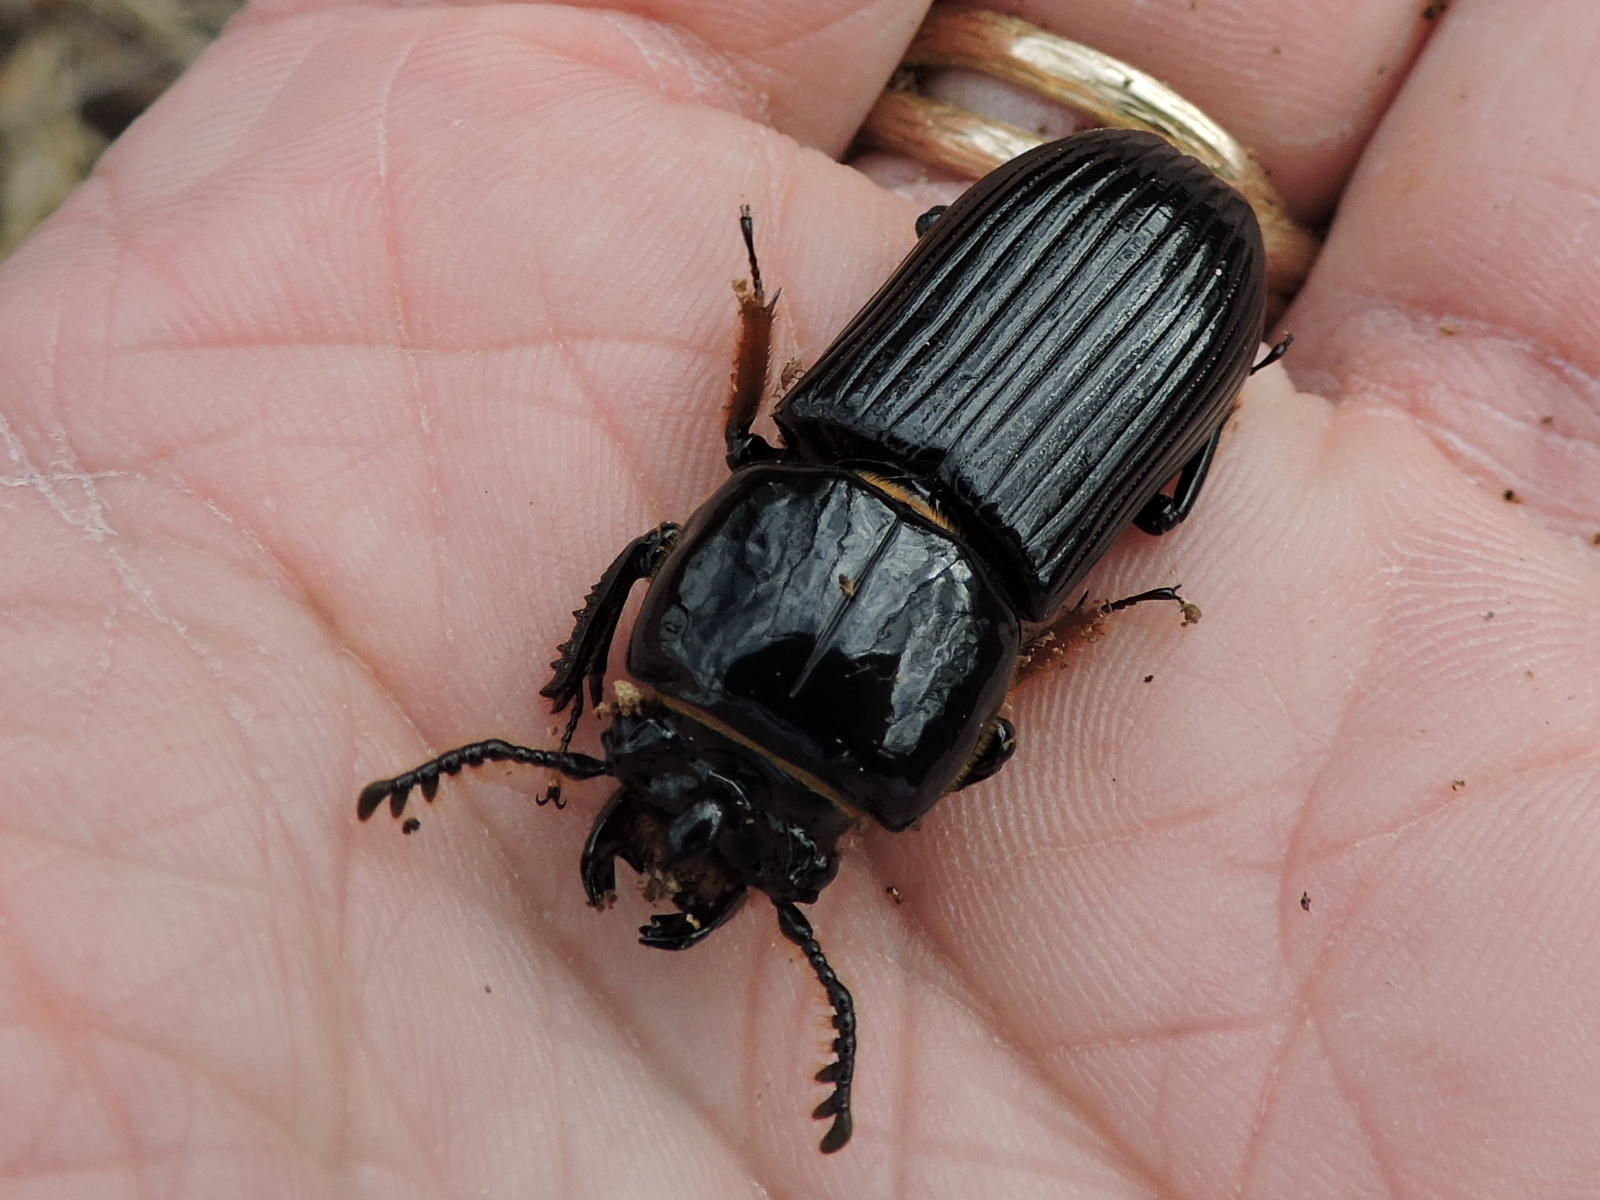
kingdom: Animalia
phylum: Arthropoda
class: Insecta
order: Coleoptera
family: Passalidae
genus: Odontotaenius
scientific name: Odontotaenius disjunctus
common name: Patent leather beetle
